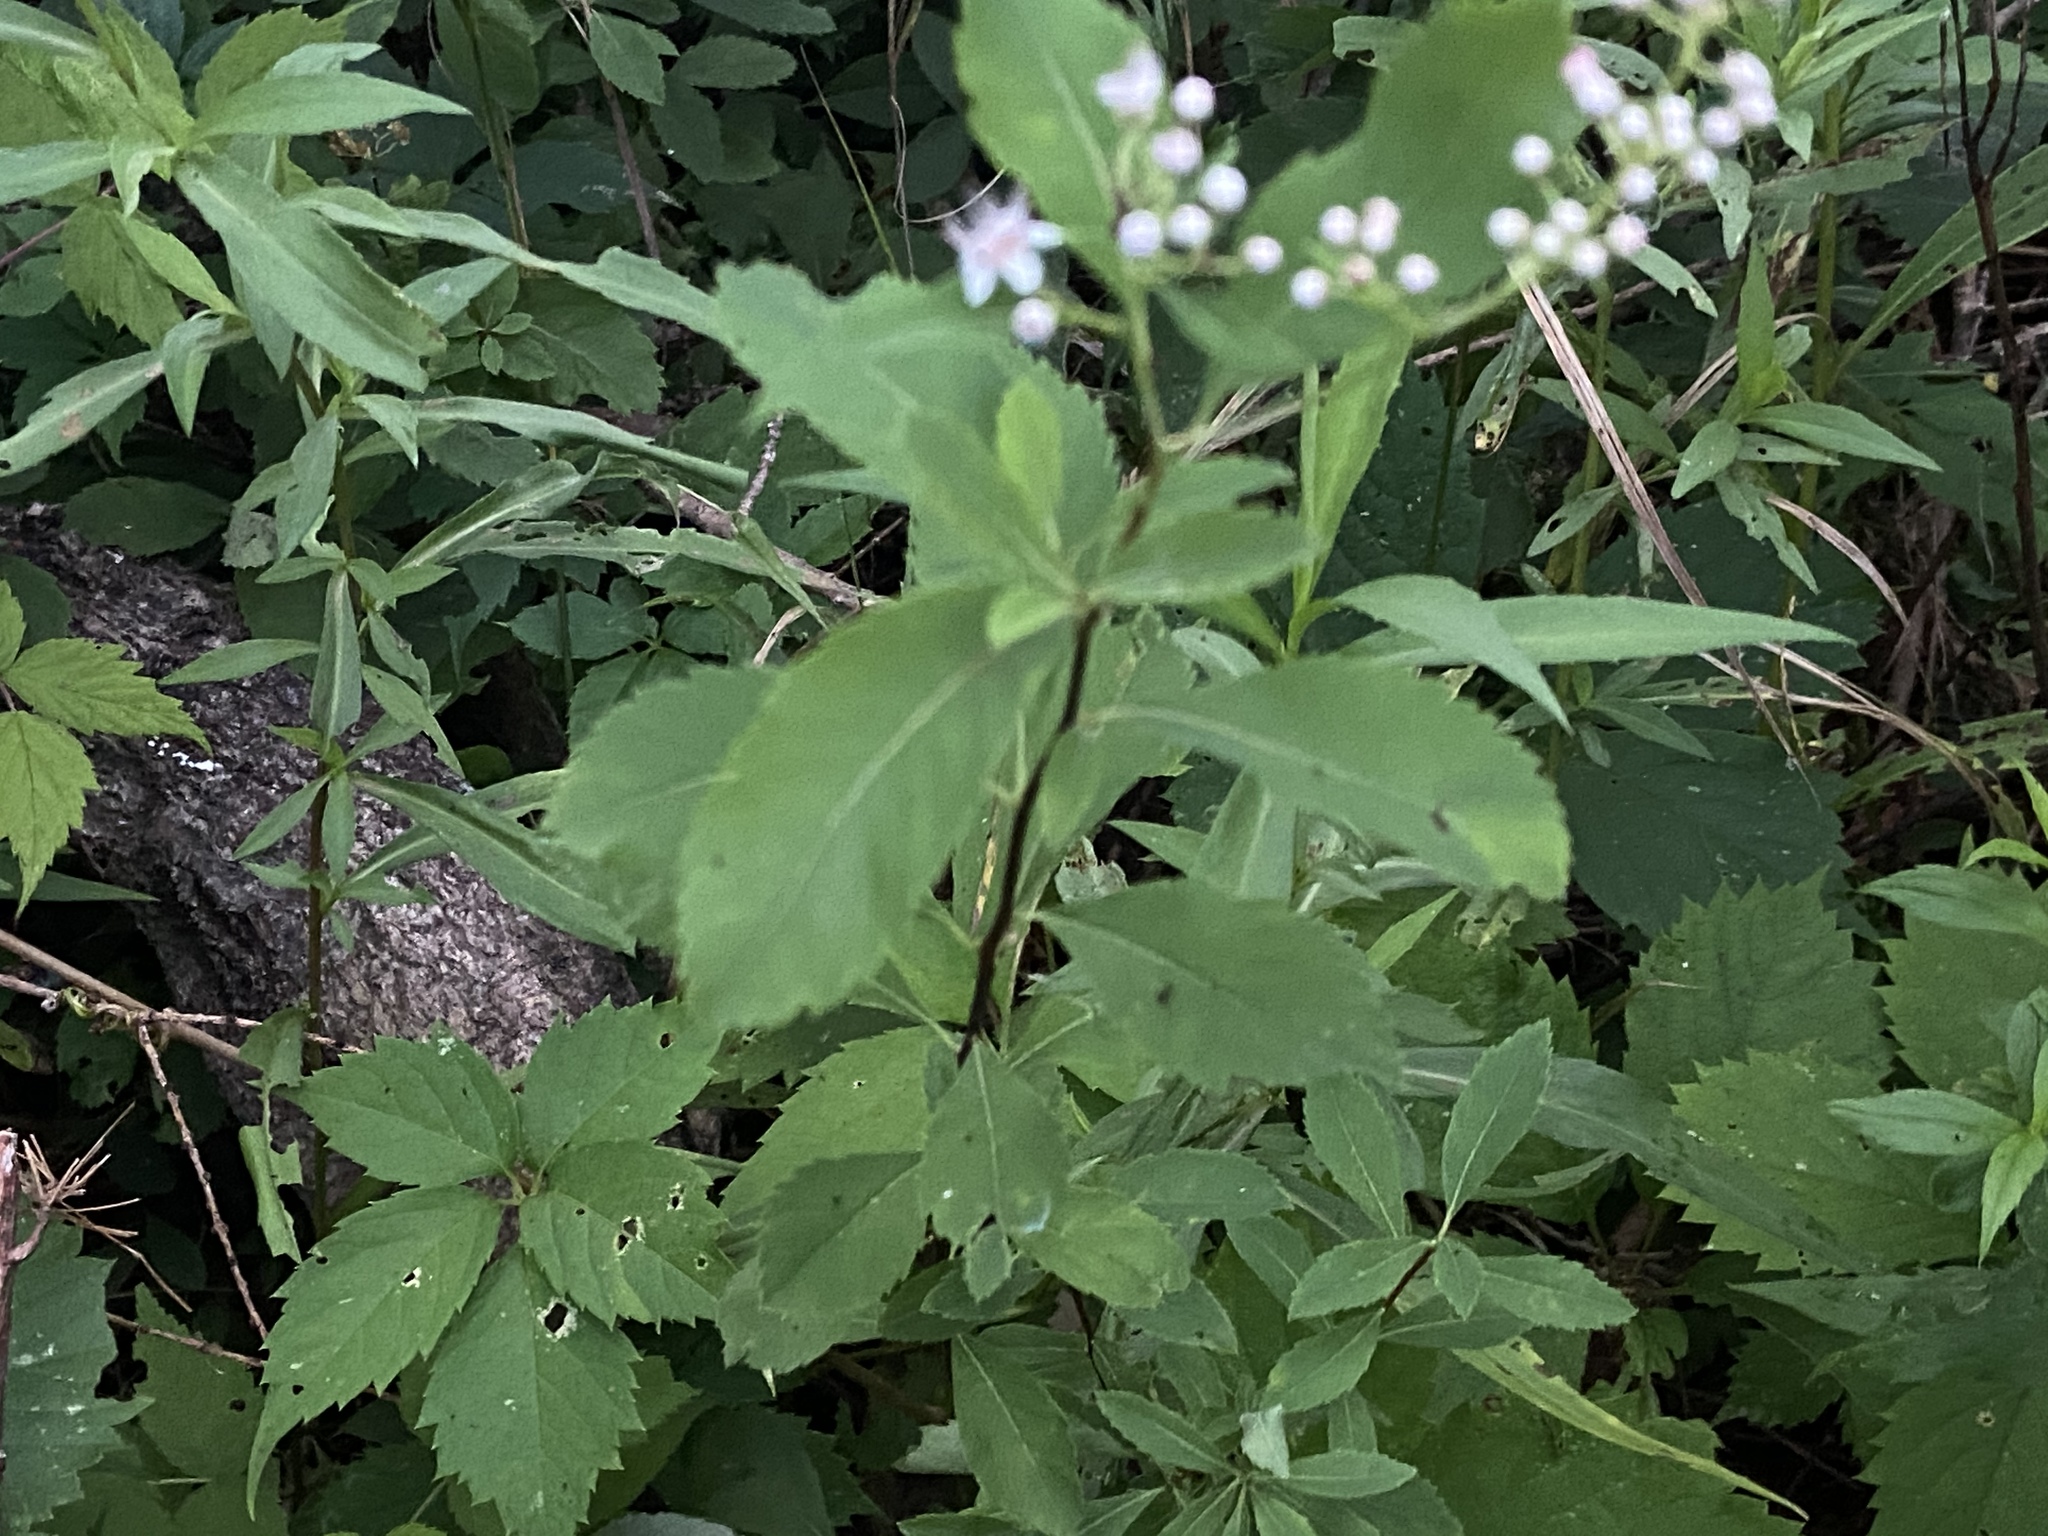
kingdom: Plantae
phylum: Tracheophyta
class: Magnoliopsida
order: Rosales
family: Rosaceae
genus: Spiraea
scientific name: Spiraea alba
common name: Pale bridewort
